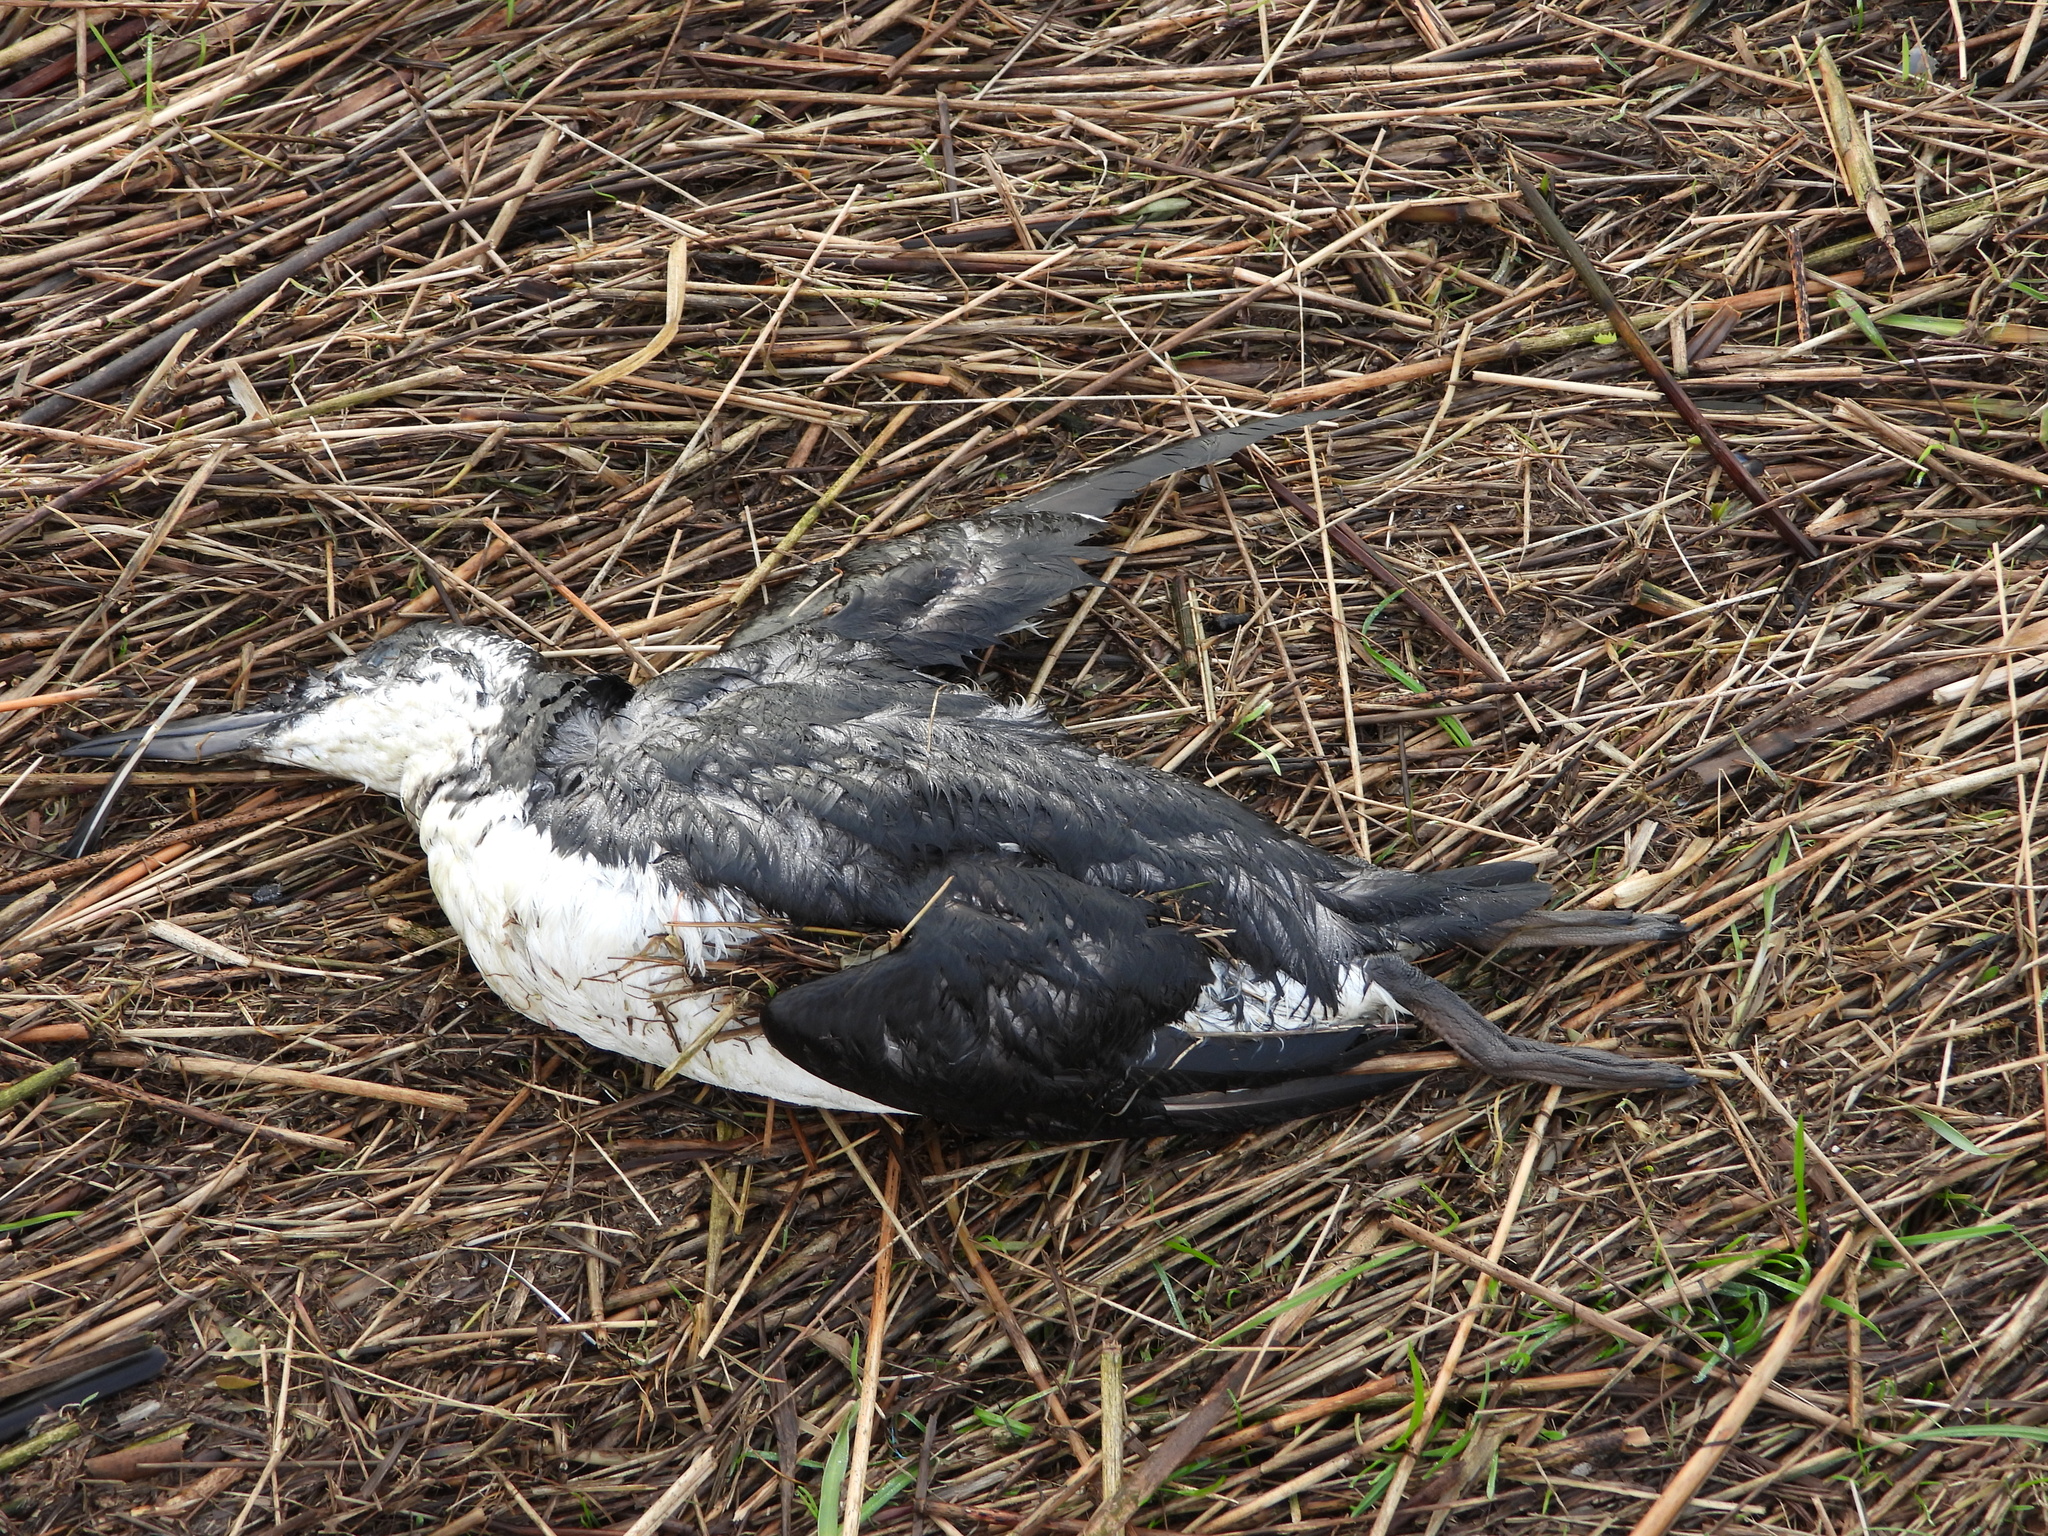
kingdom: Animalia
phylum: Chordata
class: Aves
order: Charadriiformes
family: Alcidae
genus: Uria
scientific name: Uria aalge
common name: Common murre
